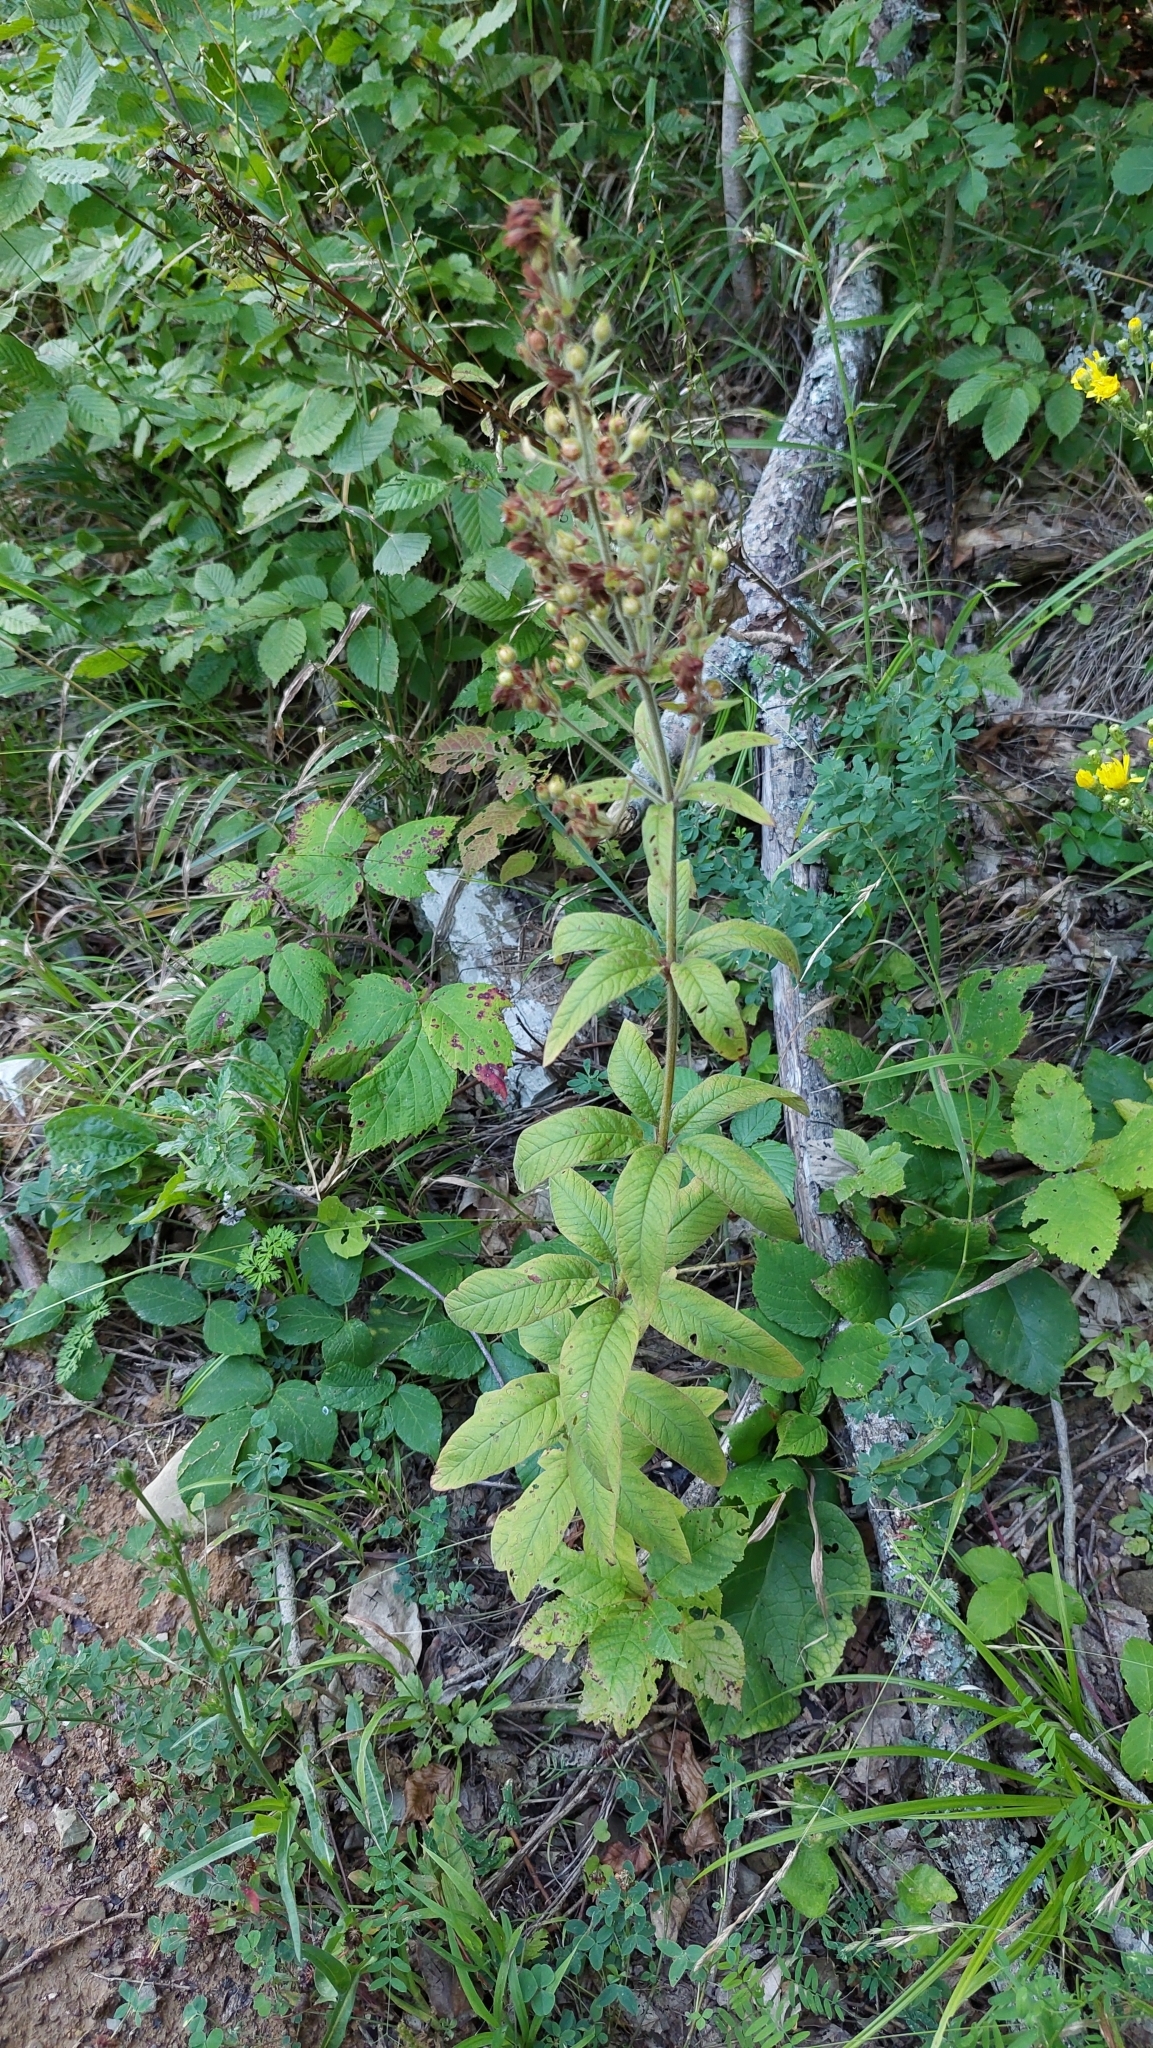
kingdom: Plantae
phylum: Tracheophyta
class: Magnoliopsida
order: Ericales
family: Primulaceae
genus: Lysimachia
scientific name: Lysimachia verticillaris
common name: Yellow loosestrife
